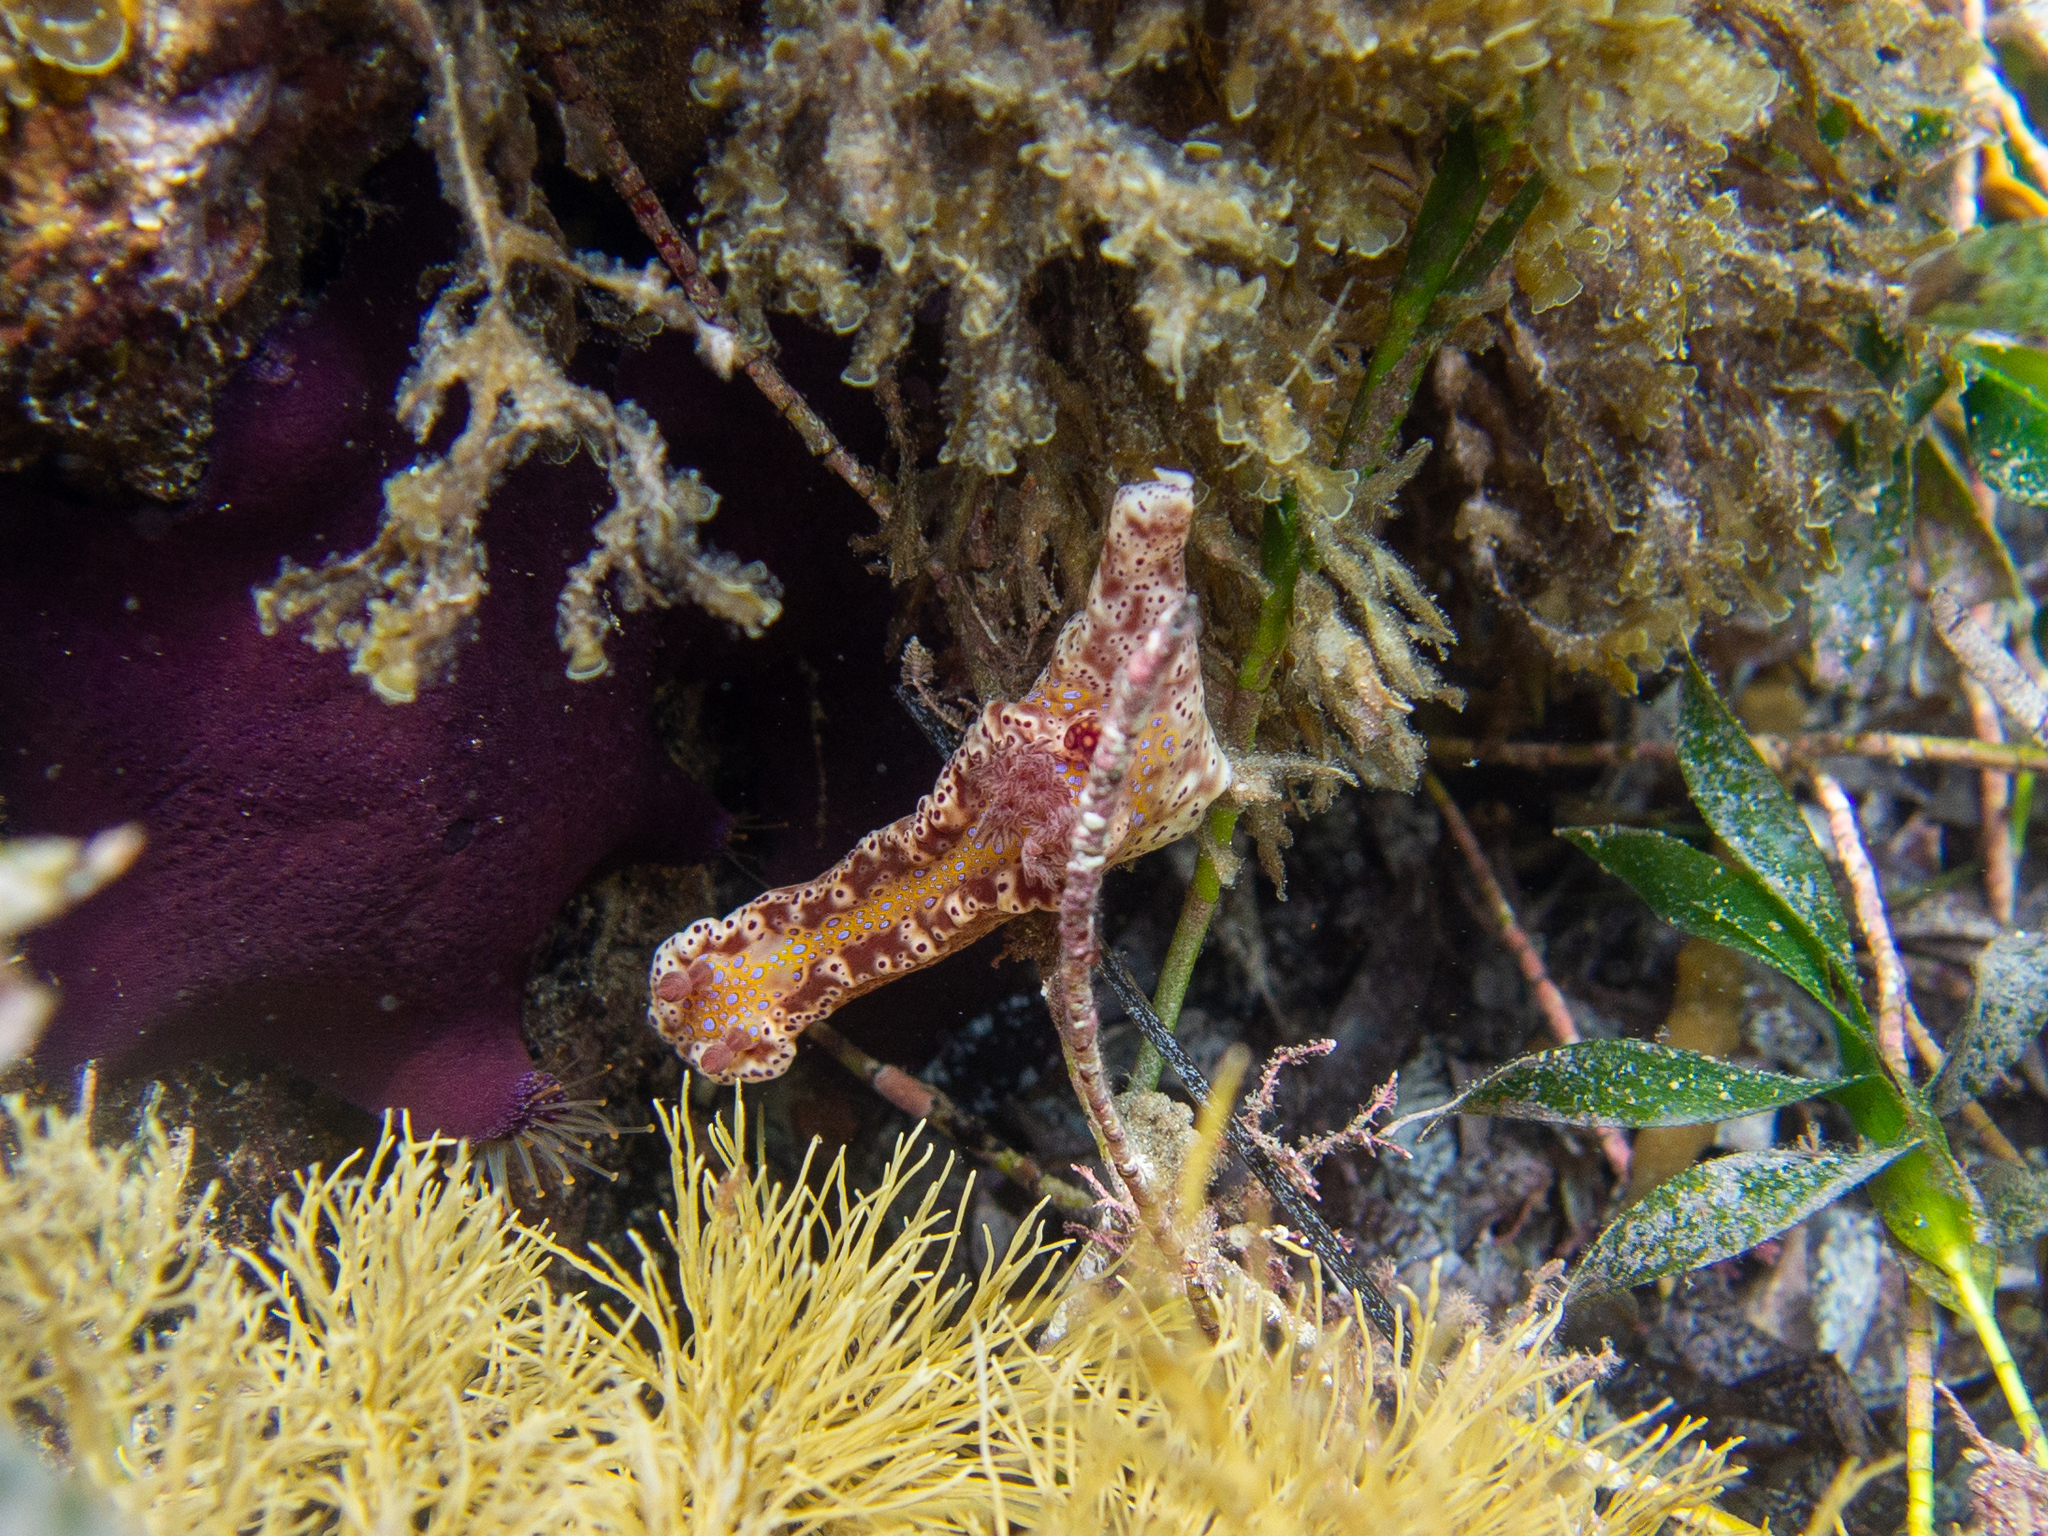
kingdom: Animalia
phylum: Mollusca
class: Gastropoda
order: Nudibranchia
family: Chromodorididae
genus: Ceratosoma
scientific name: Ceratosoma brevicaudatum
